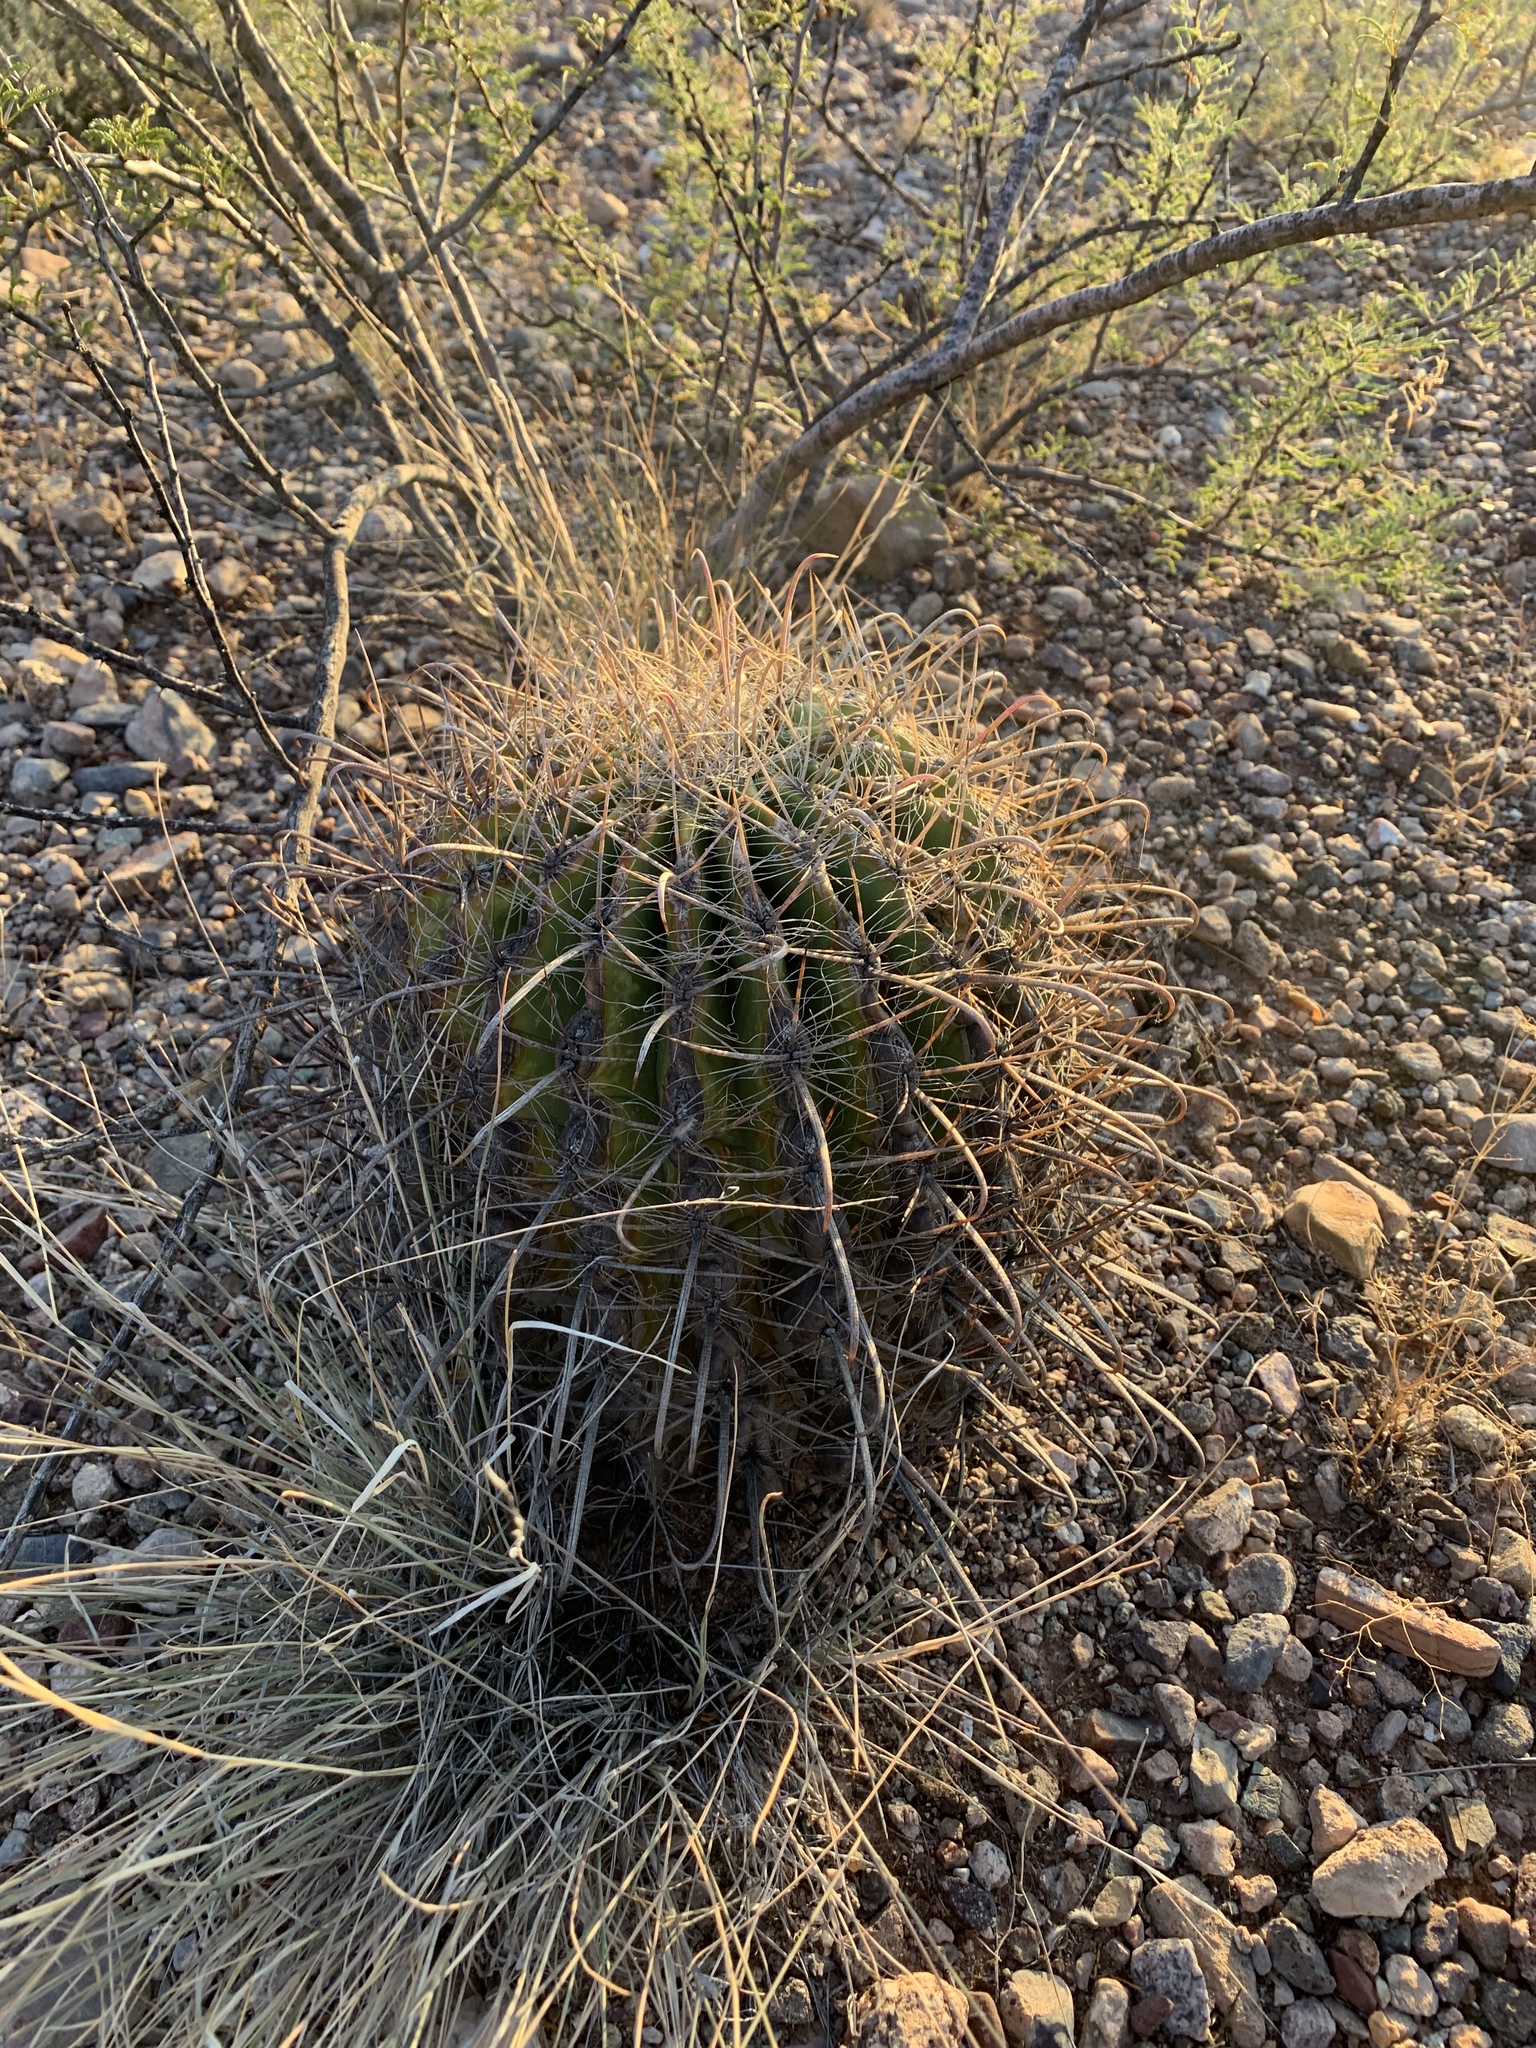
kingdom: Plantae
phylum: Tracheophyta
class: Magnoliopsida
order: Caryophyllales
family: Cactaceae
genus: Ferocactus
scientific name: Ferocactus wislizeni
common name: Candy barrel cactus
